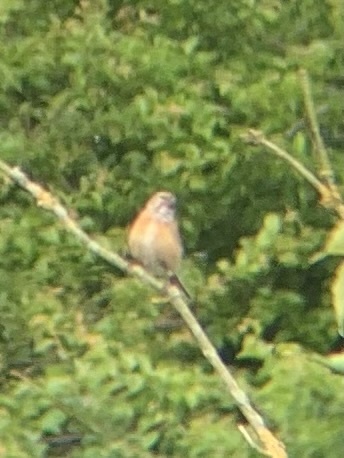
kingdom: Animalia
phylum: Chordata
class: Aves
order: Passeriformes
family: Fringillidae
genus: Linaria
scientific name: Linaria cannabina
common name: Common linnet
